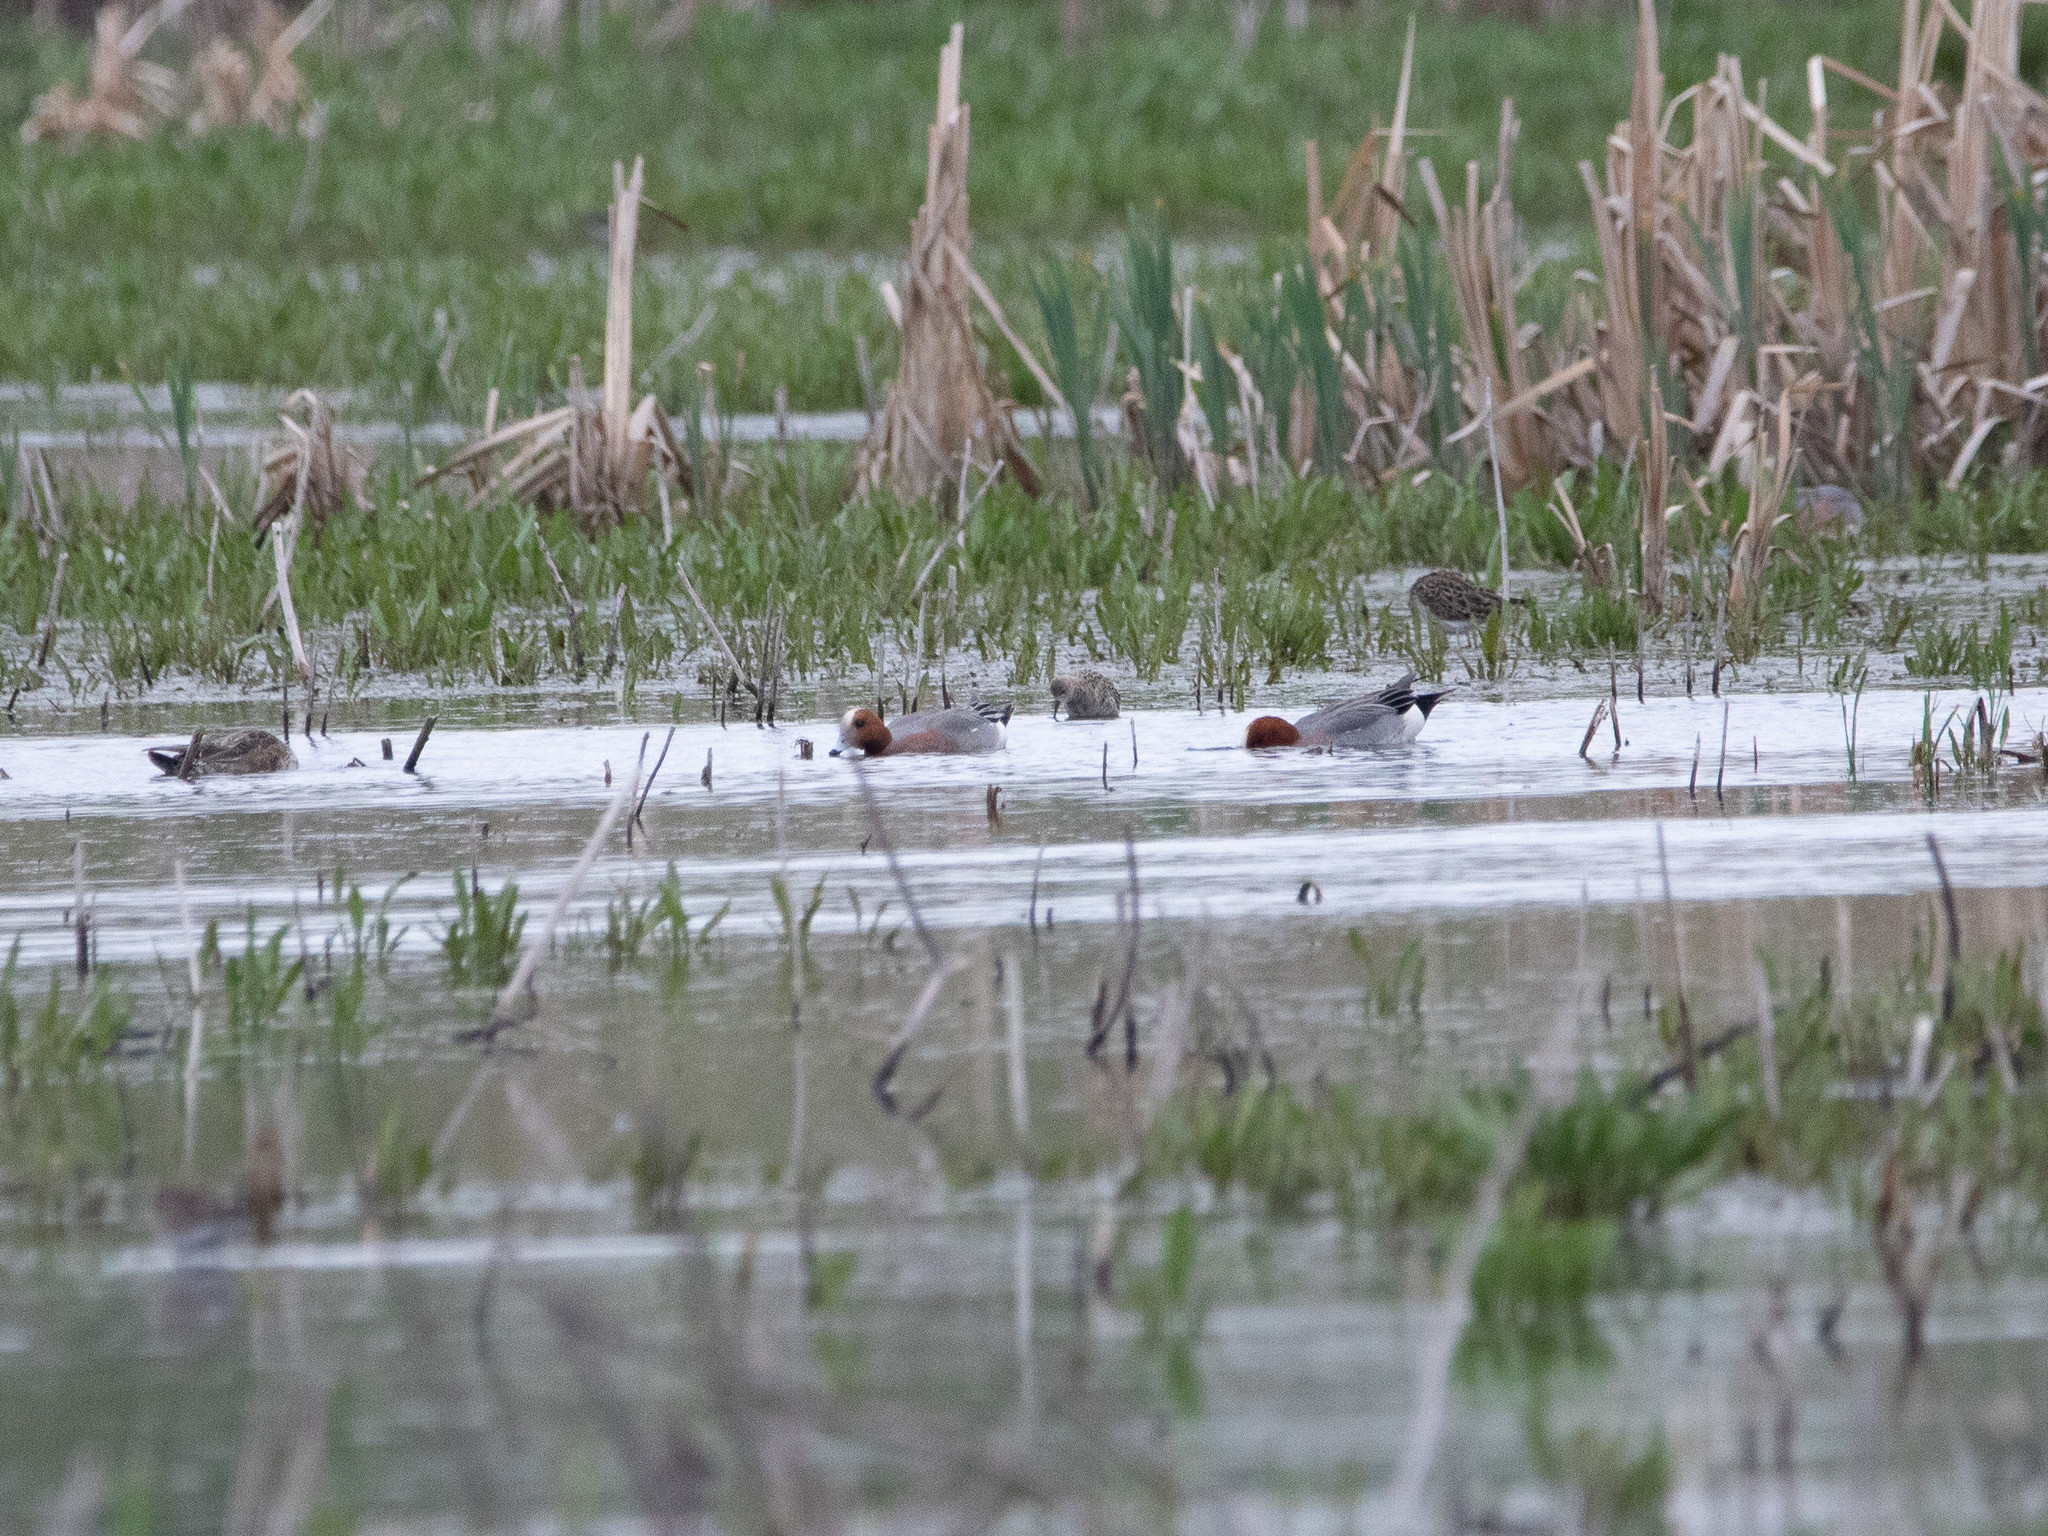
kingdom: Animalia
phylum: Chordata
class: Aves
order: Anseriformes
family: Anatidae
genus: Mareca
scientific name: Mareca penelope
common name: Eurasian wigeon
